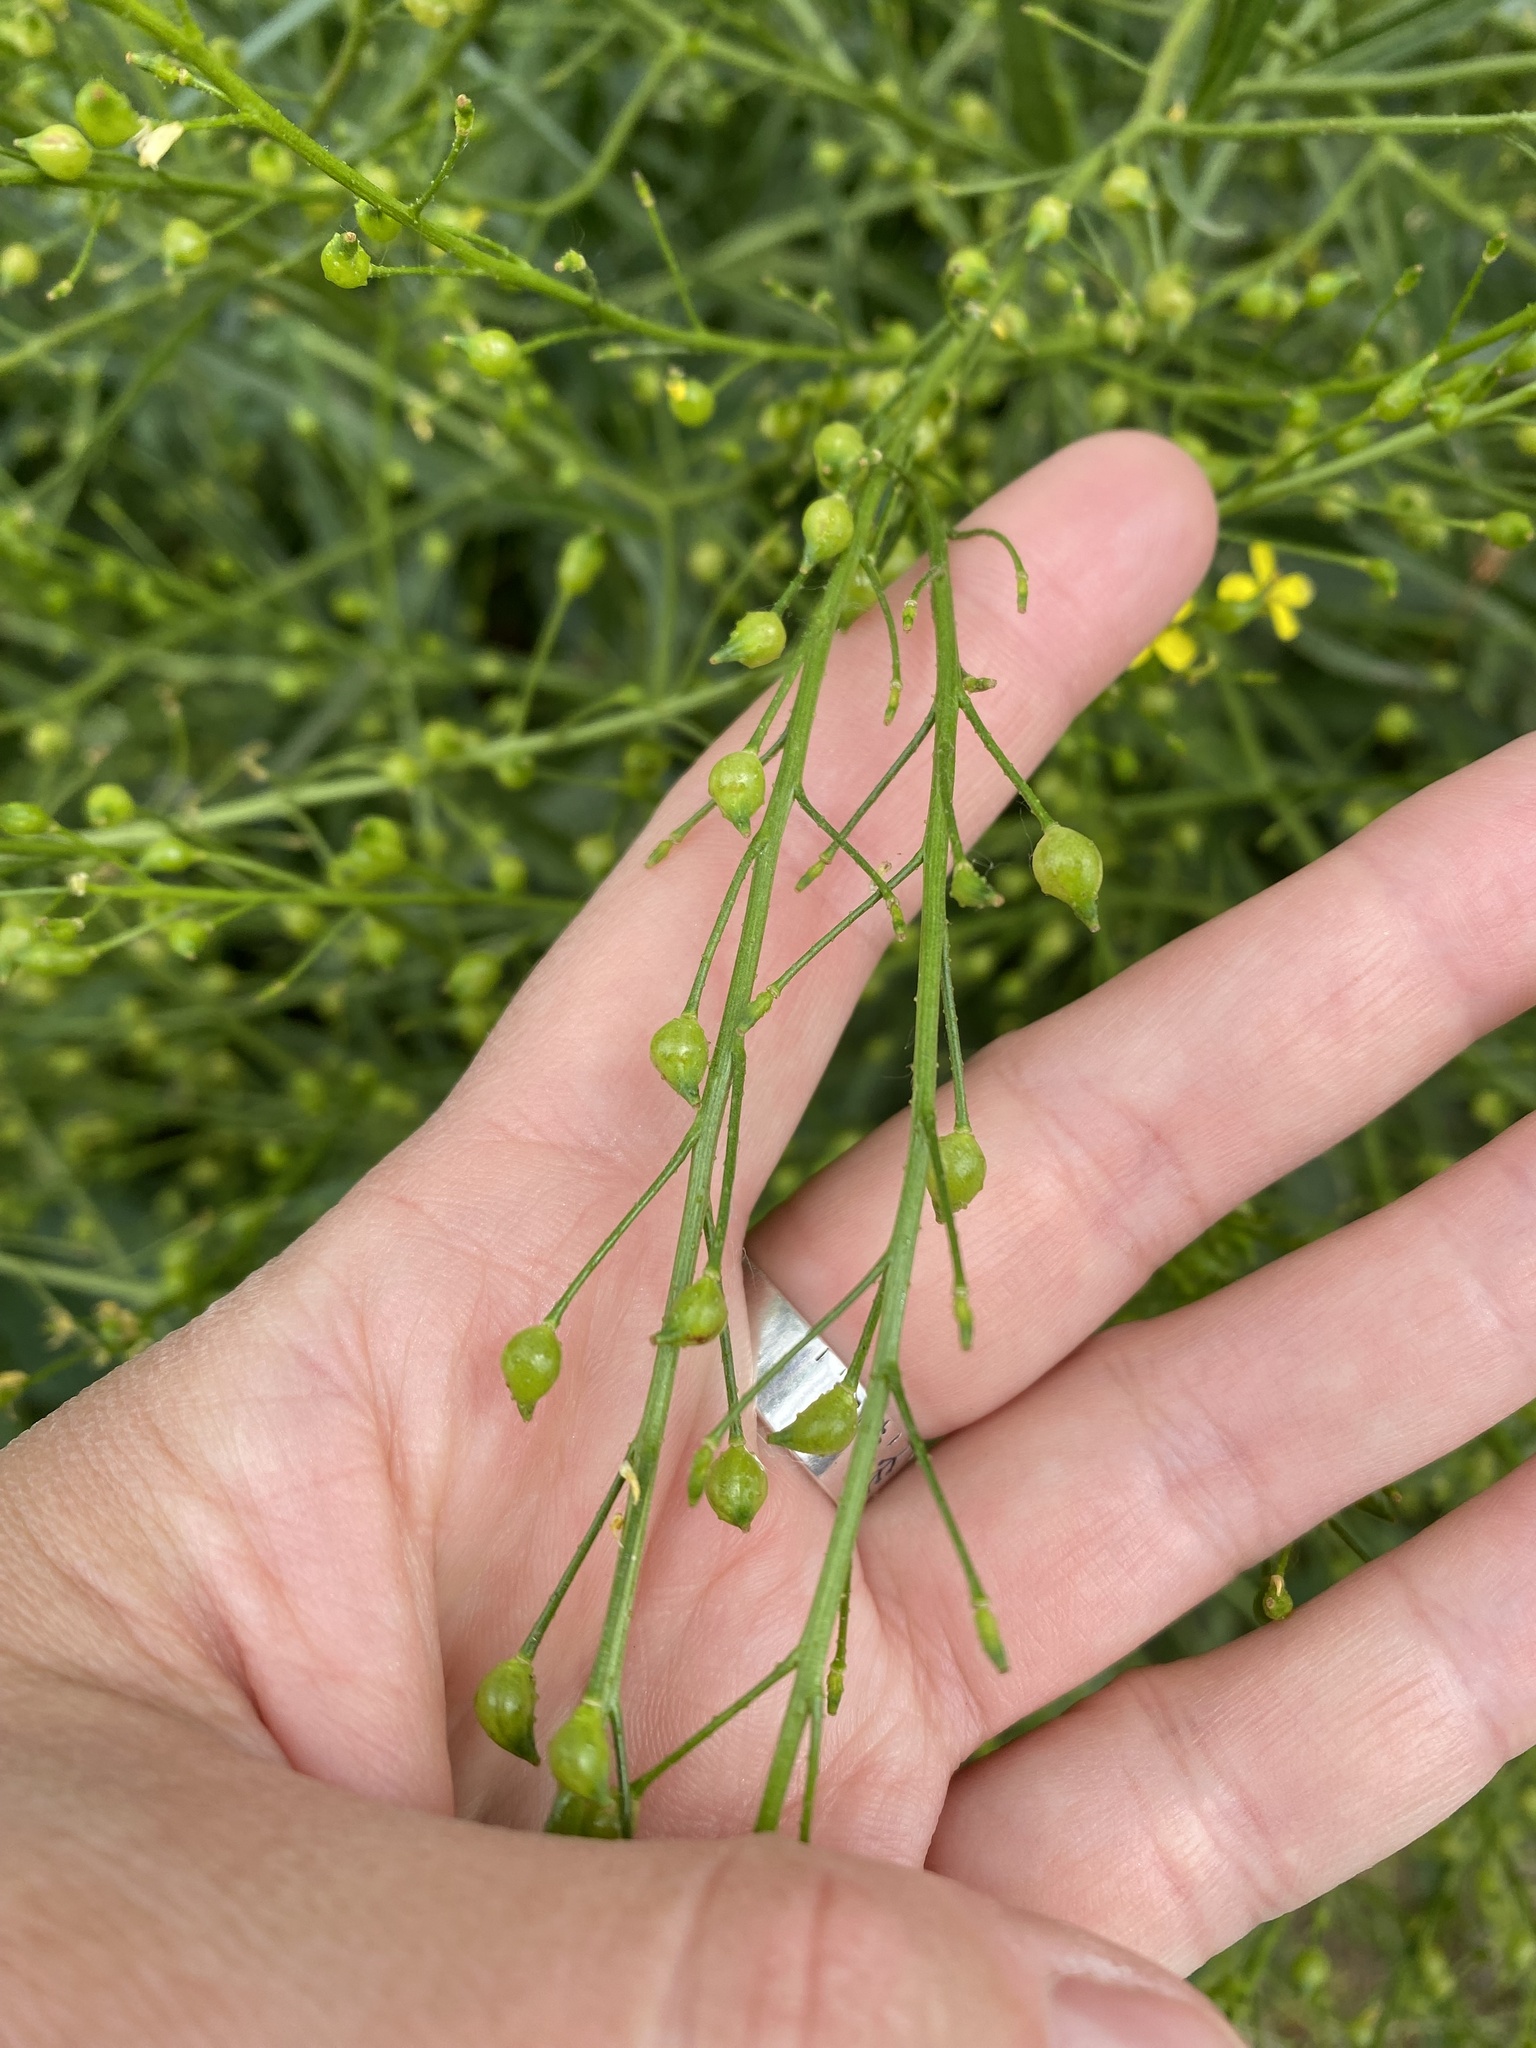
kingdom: Plantae
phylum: Tracheophyta
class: Magnoliopsida
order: Brassicales
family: Brassicaceae
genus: Bunias
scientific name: Bunias orientalis
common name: Warty-cabbage
